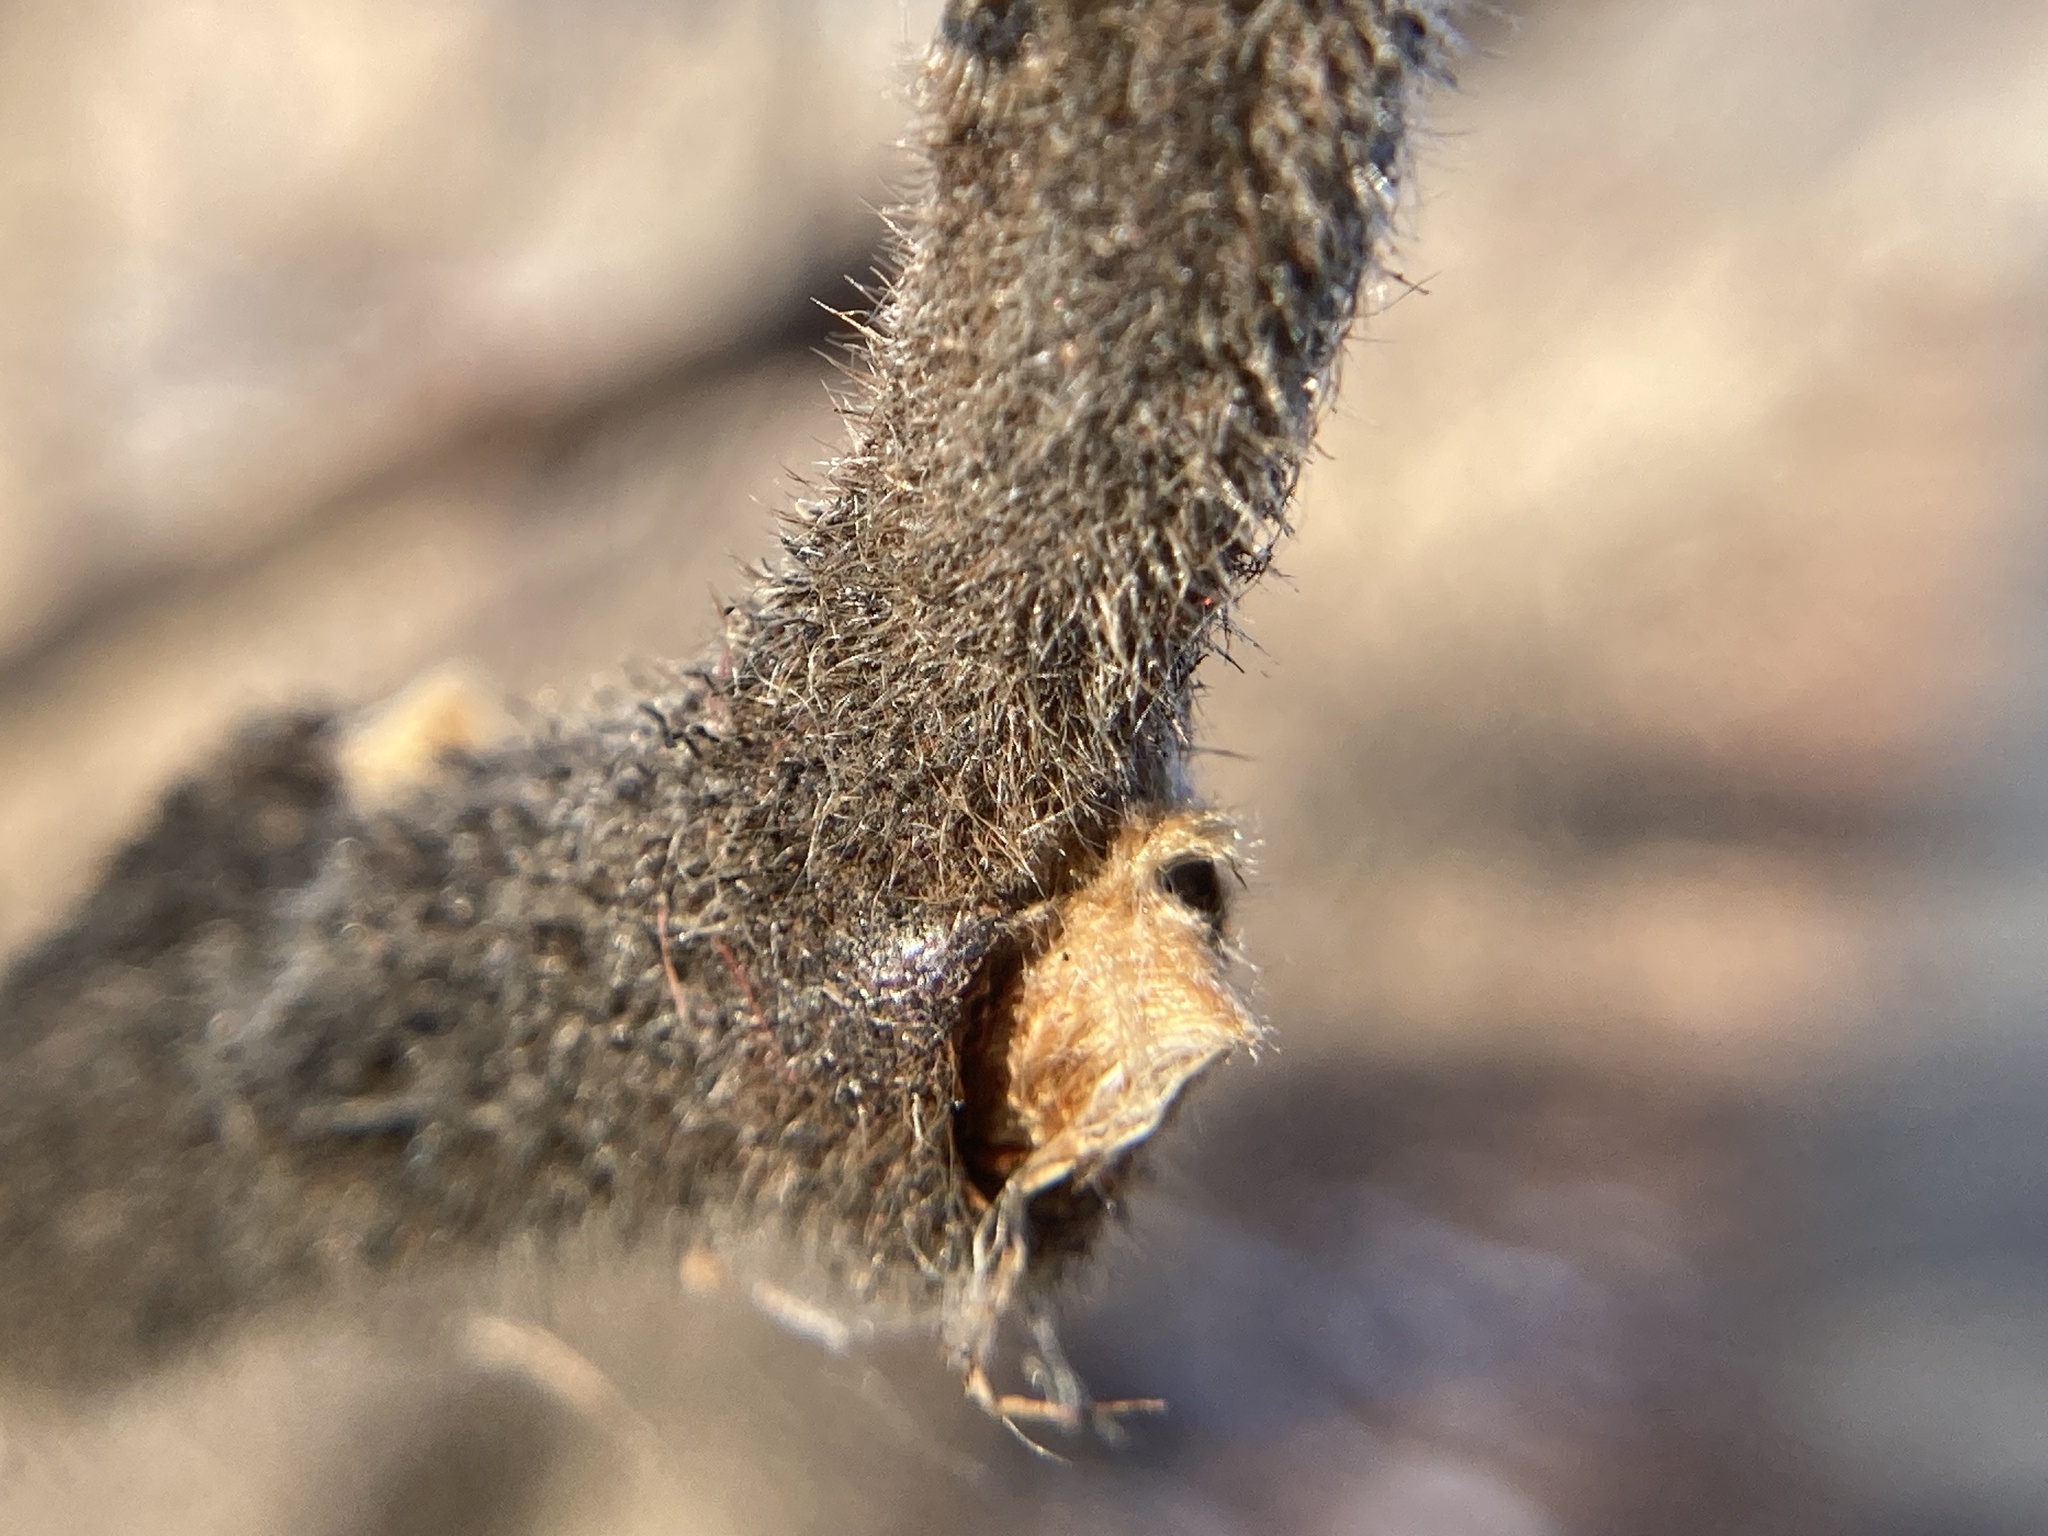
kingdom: Plantae
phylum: Tracheophyta
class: Magnoliopsida
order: Sapindales
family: Anacardiaceae
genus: Rhus
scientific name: Rhus typhina
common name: Staghorn sumac
